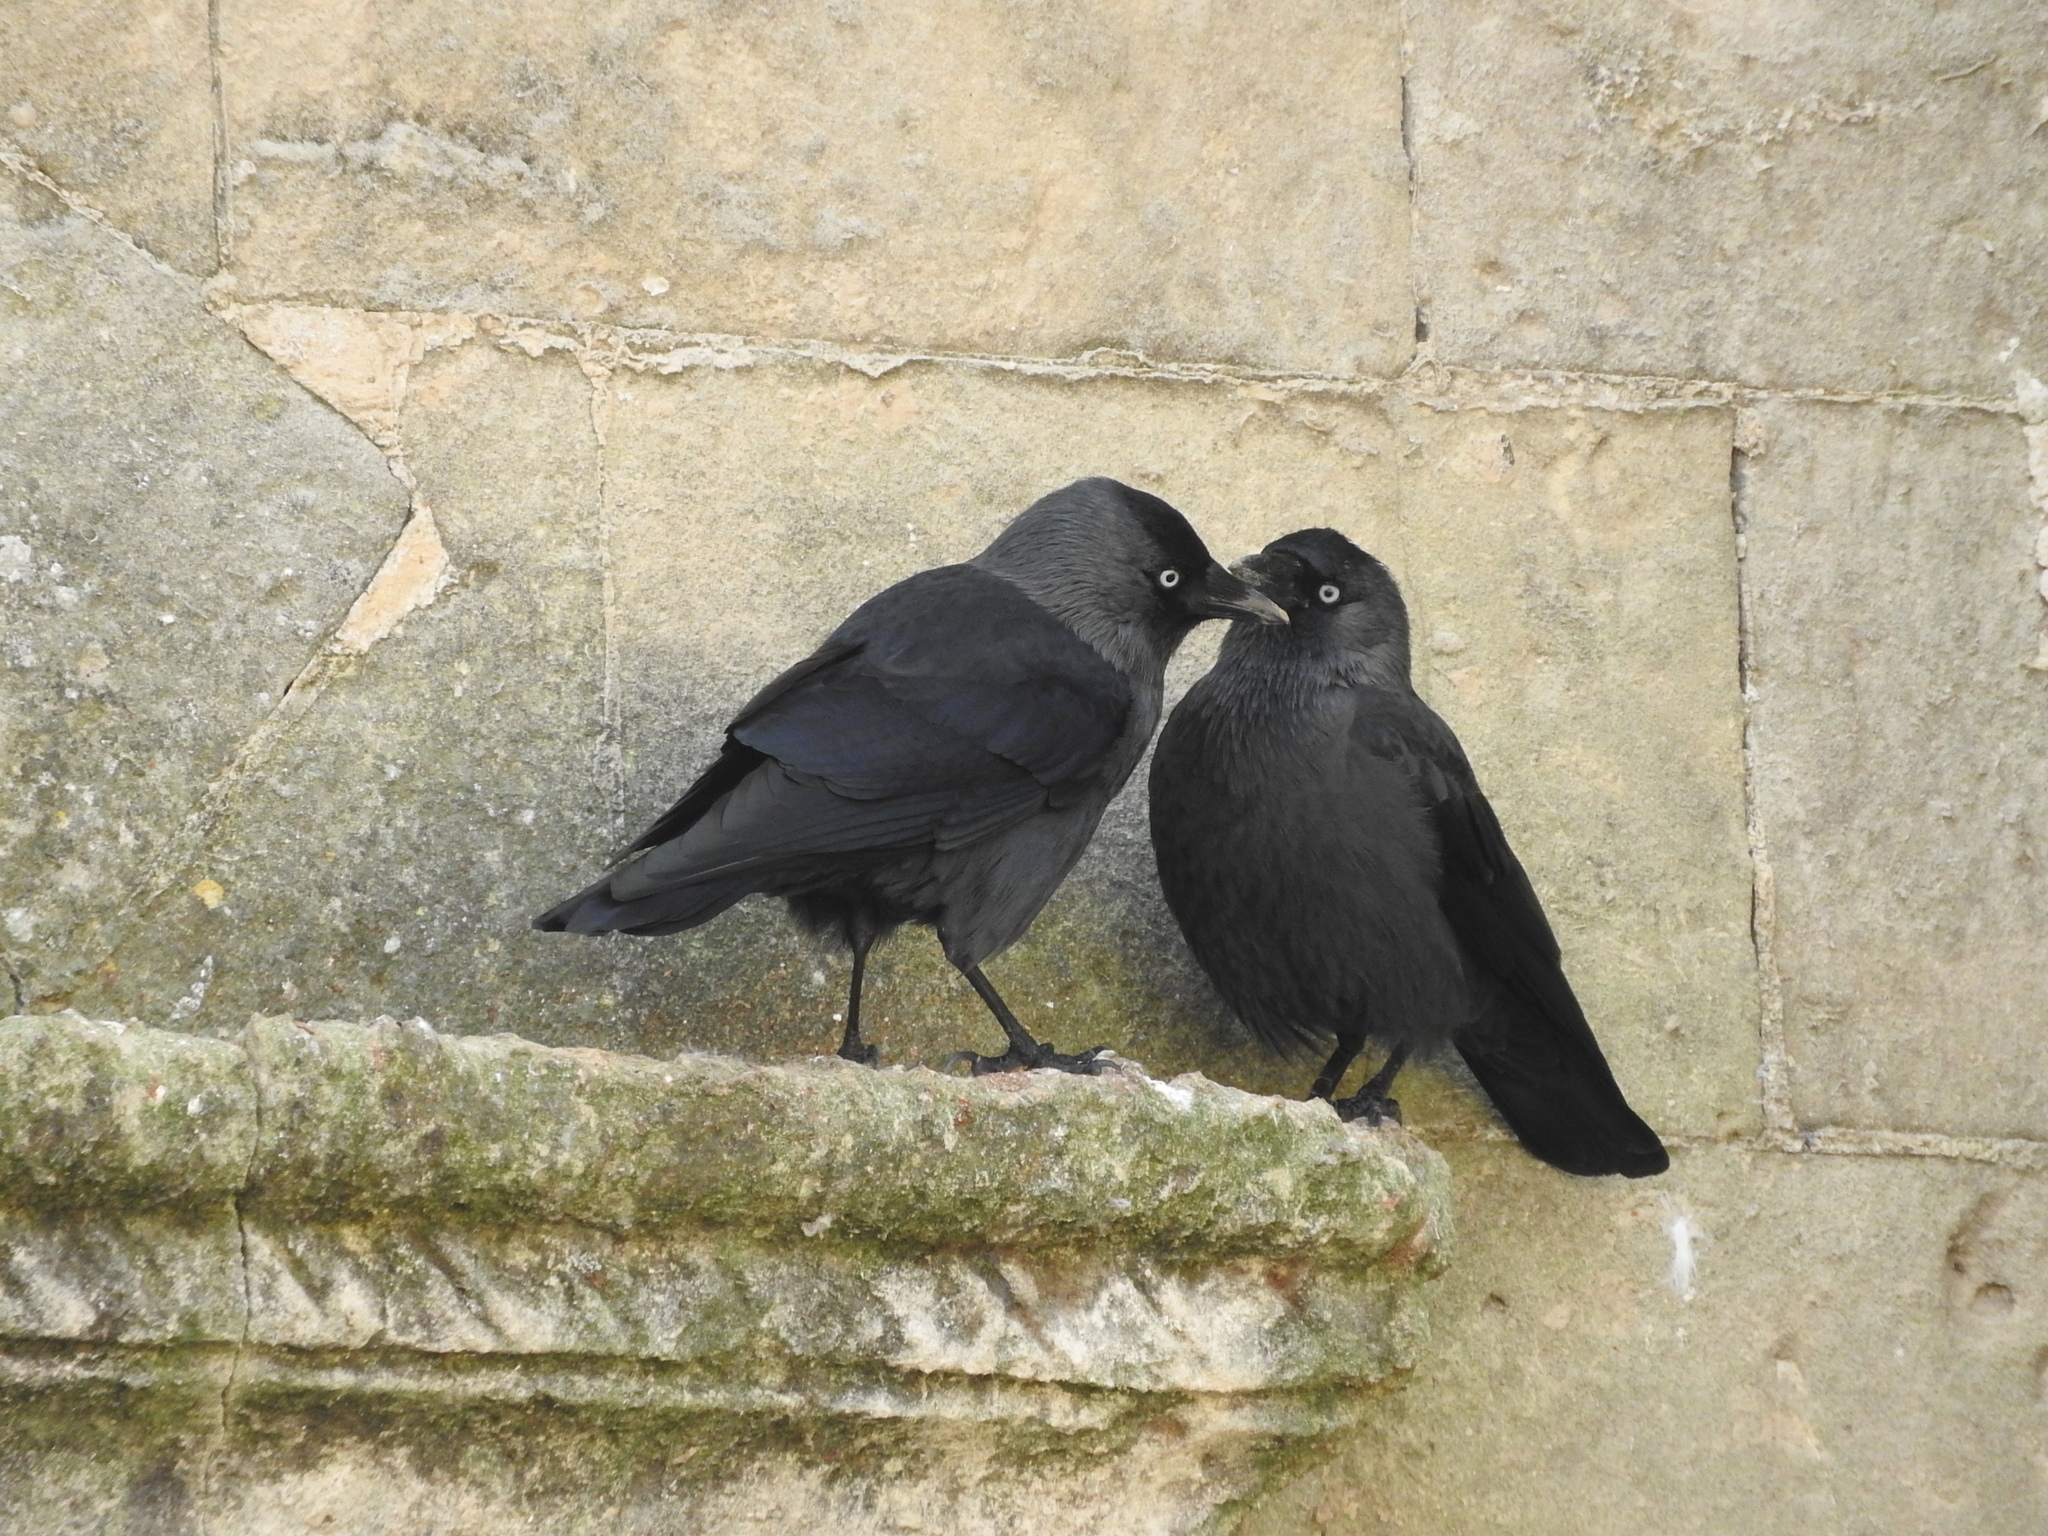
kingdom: Animalia
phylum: Chordata
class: Aves
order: Passeriformes
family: Corvidae
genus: Coloeus
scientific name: Coloeus monedula
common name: Western jackdaw
